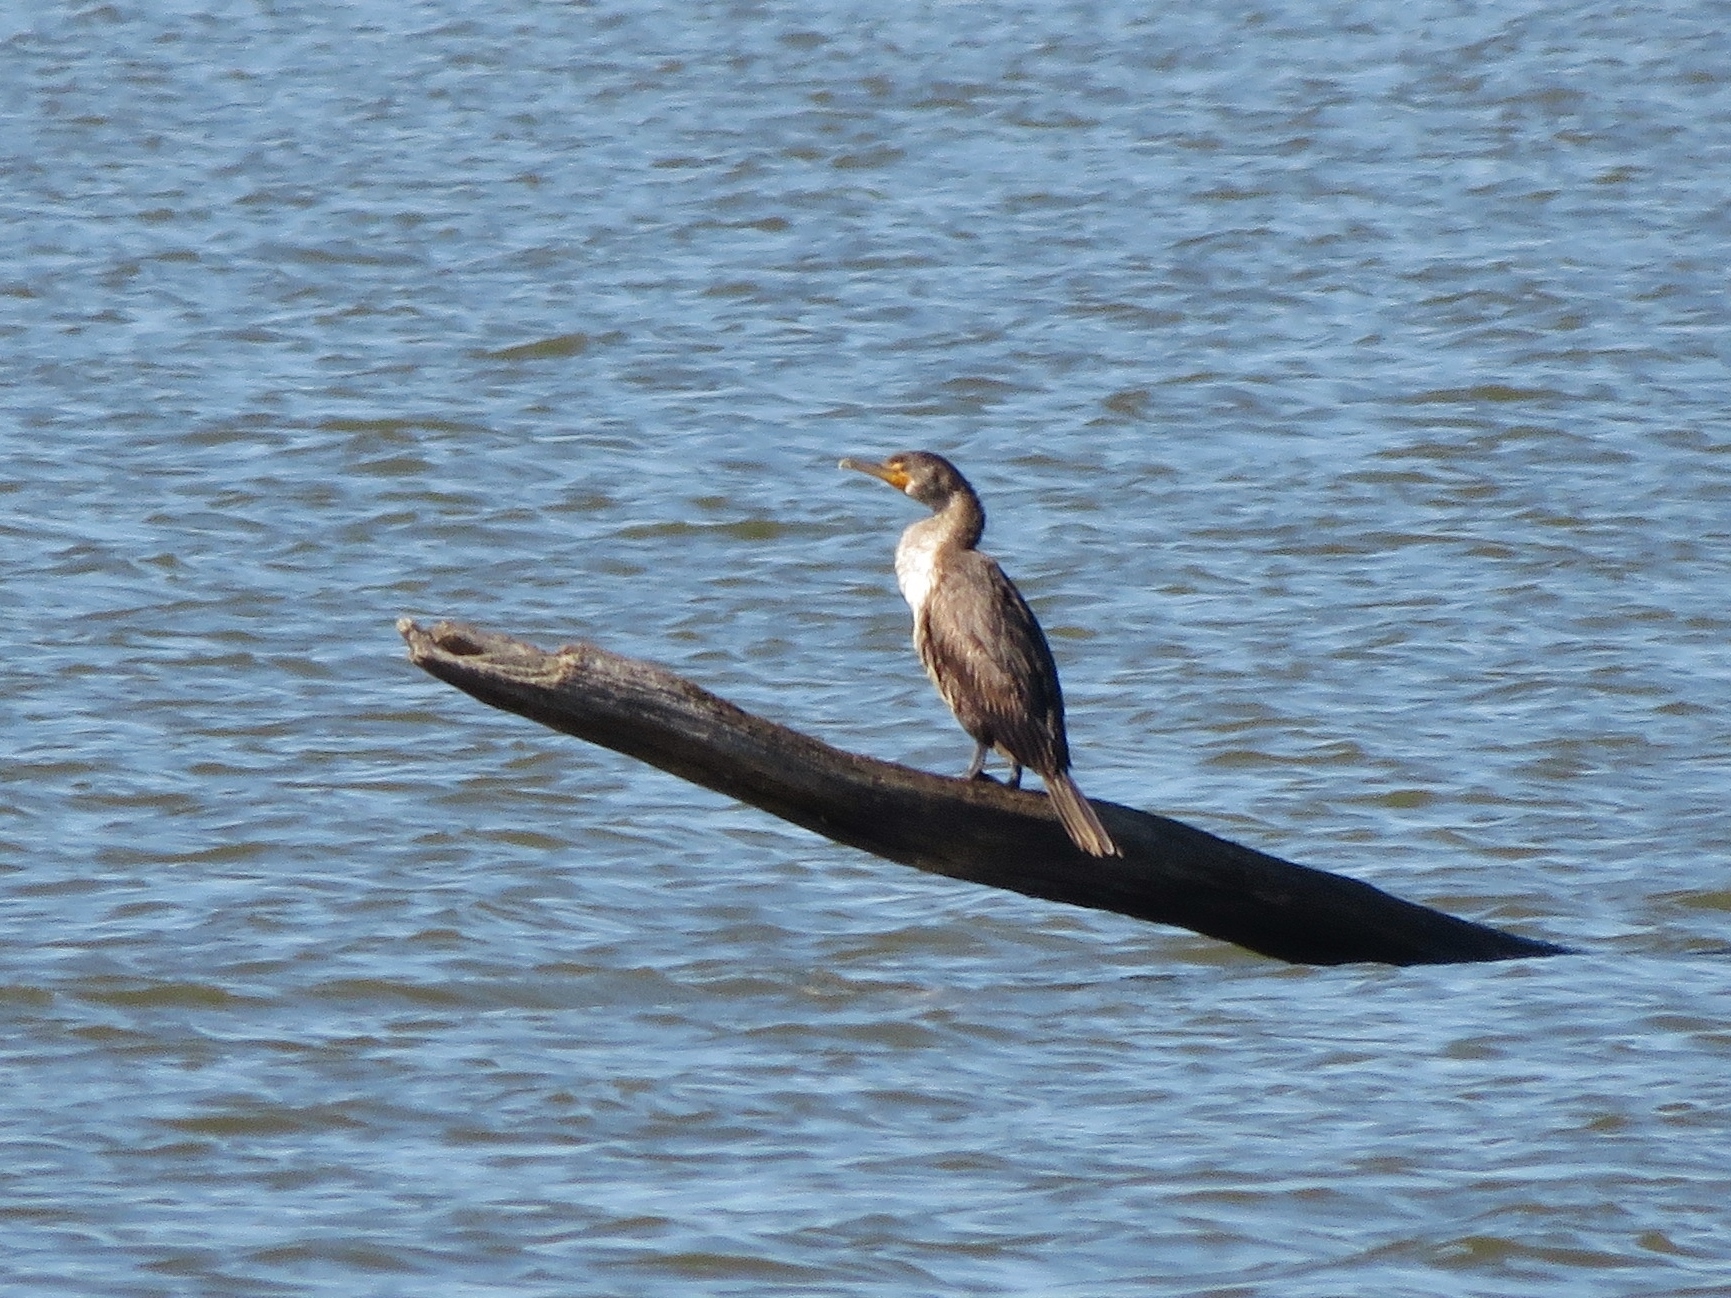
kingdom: Animalia
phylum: Chordata
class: Aves
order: Suliformes
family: Phalacrocoracidae
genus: Phalacrocorax
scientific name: Phalacrocorax auritus
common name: Double-crested cormorant
